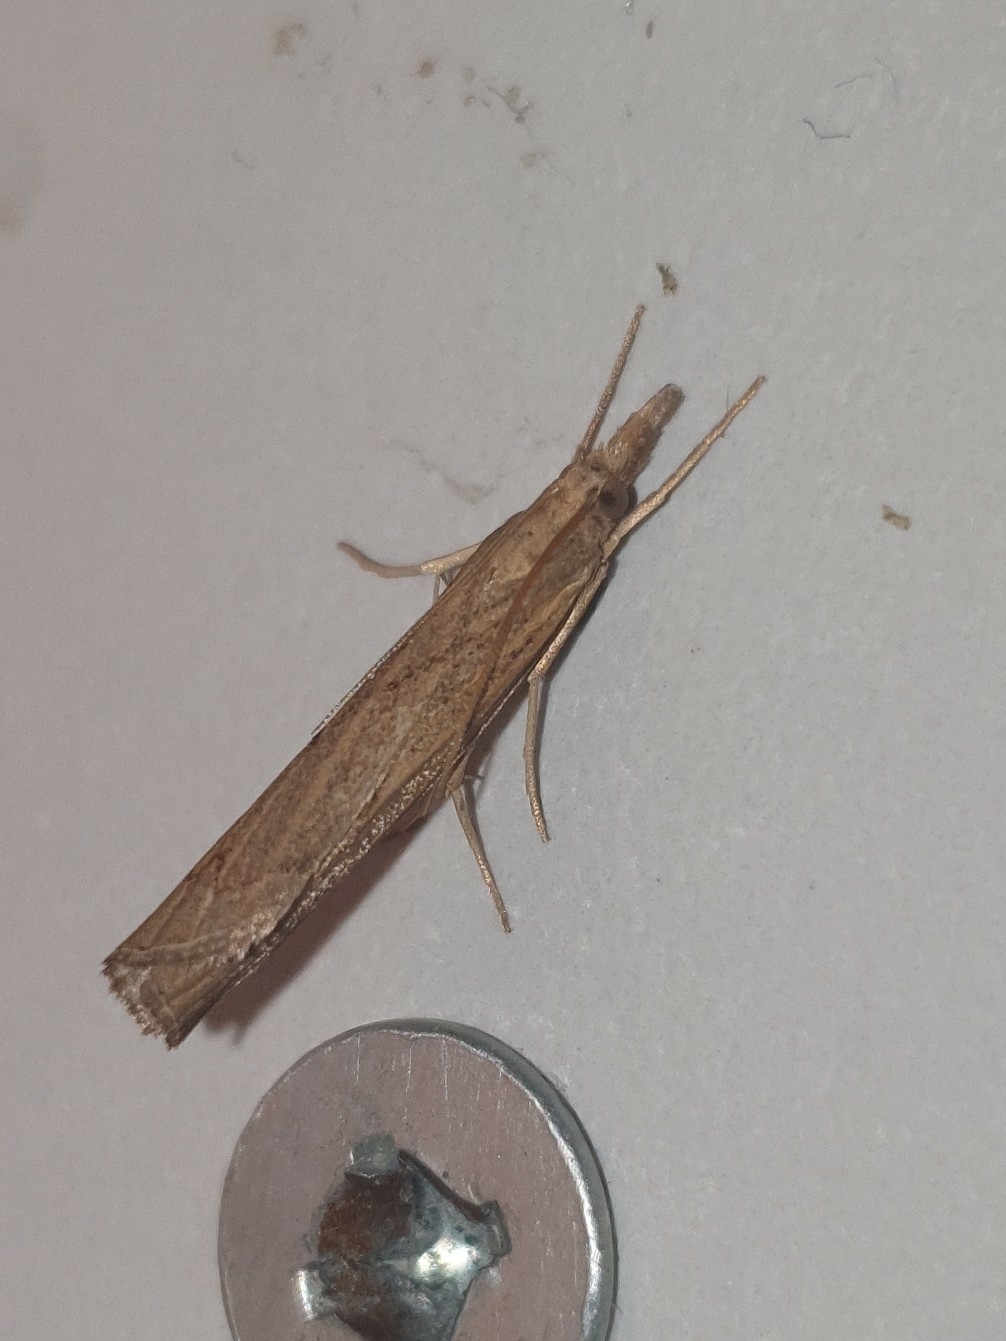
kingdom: Animalia
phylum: Arthropoda
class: Insecta
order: Lepidoptera
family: Crambidae
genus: Pediasia
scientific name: Pediasia contaminella
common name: Waste grass-veneer
